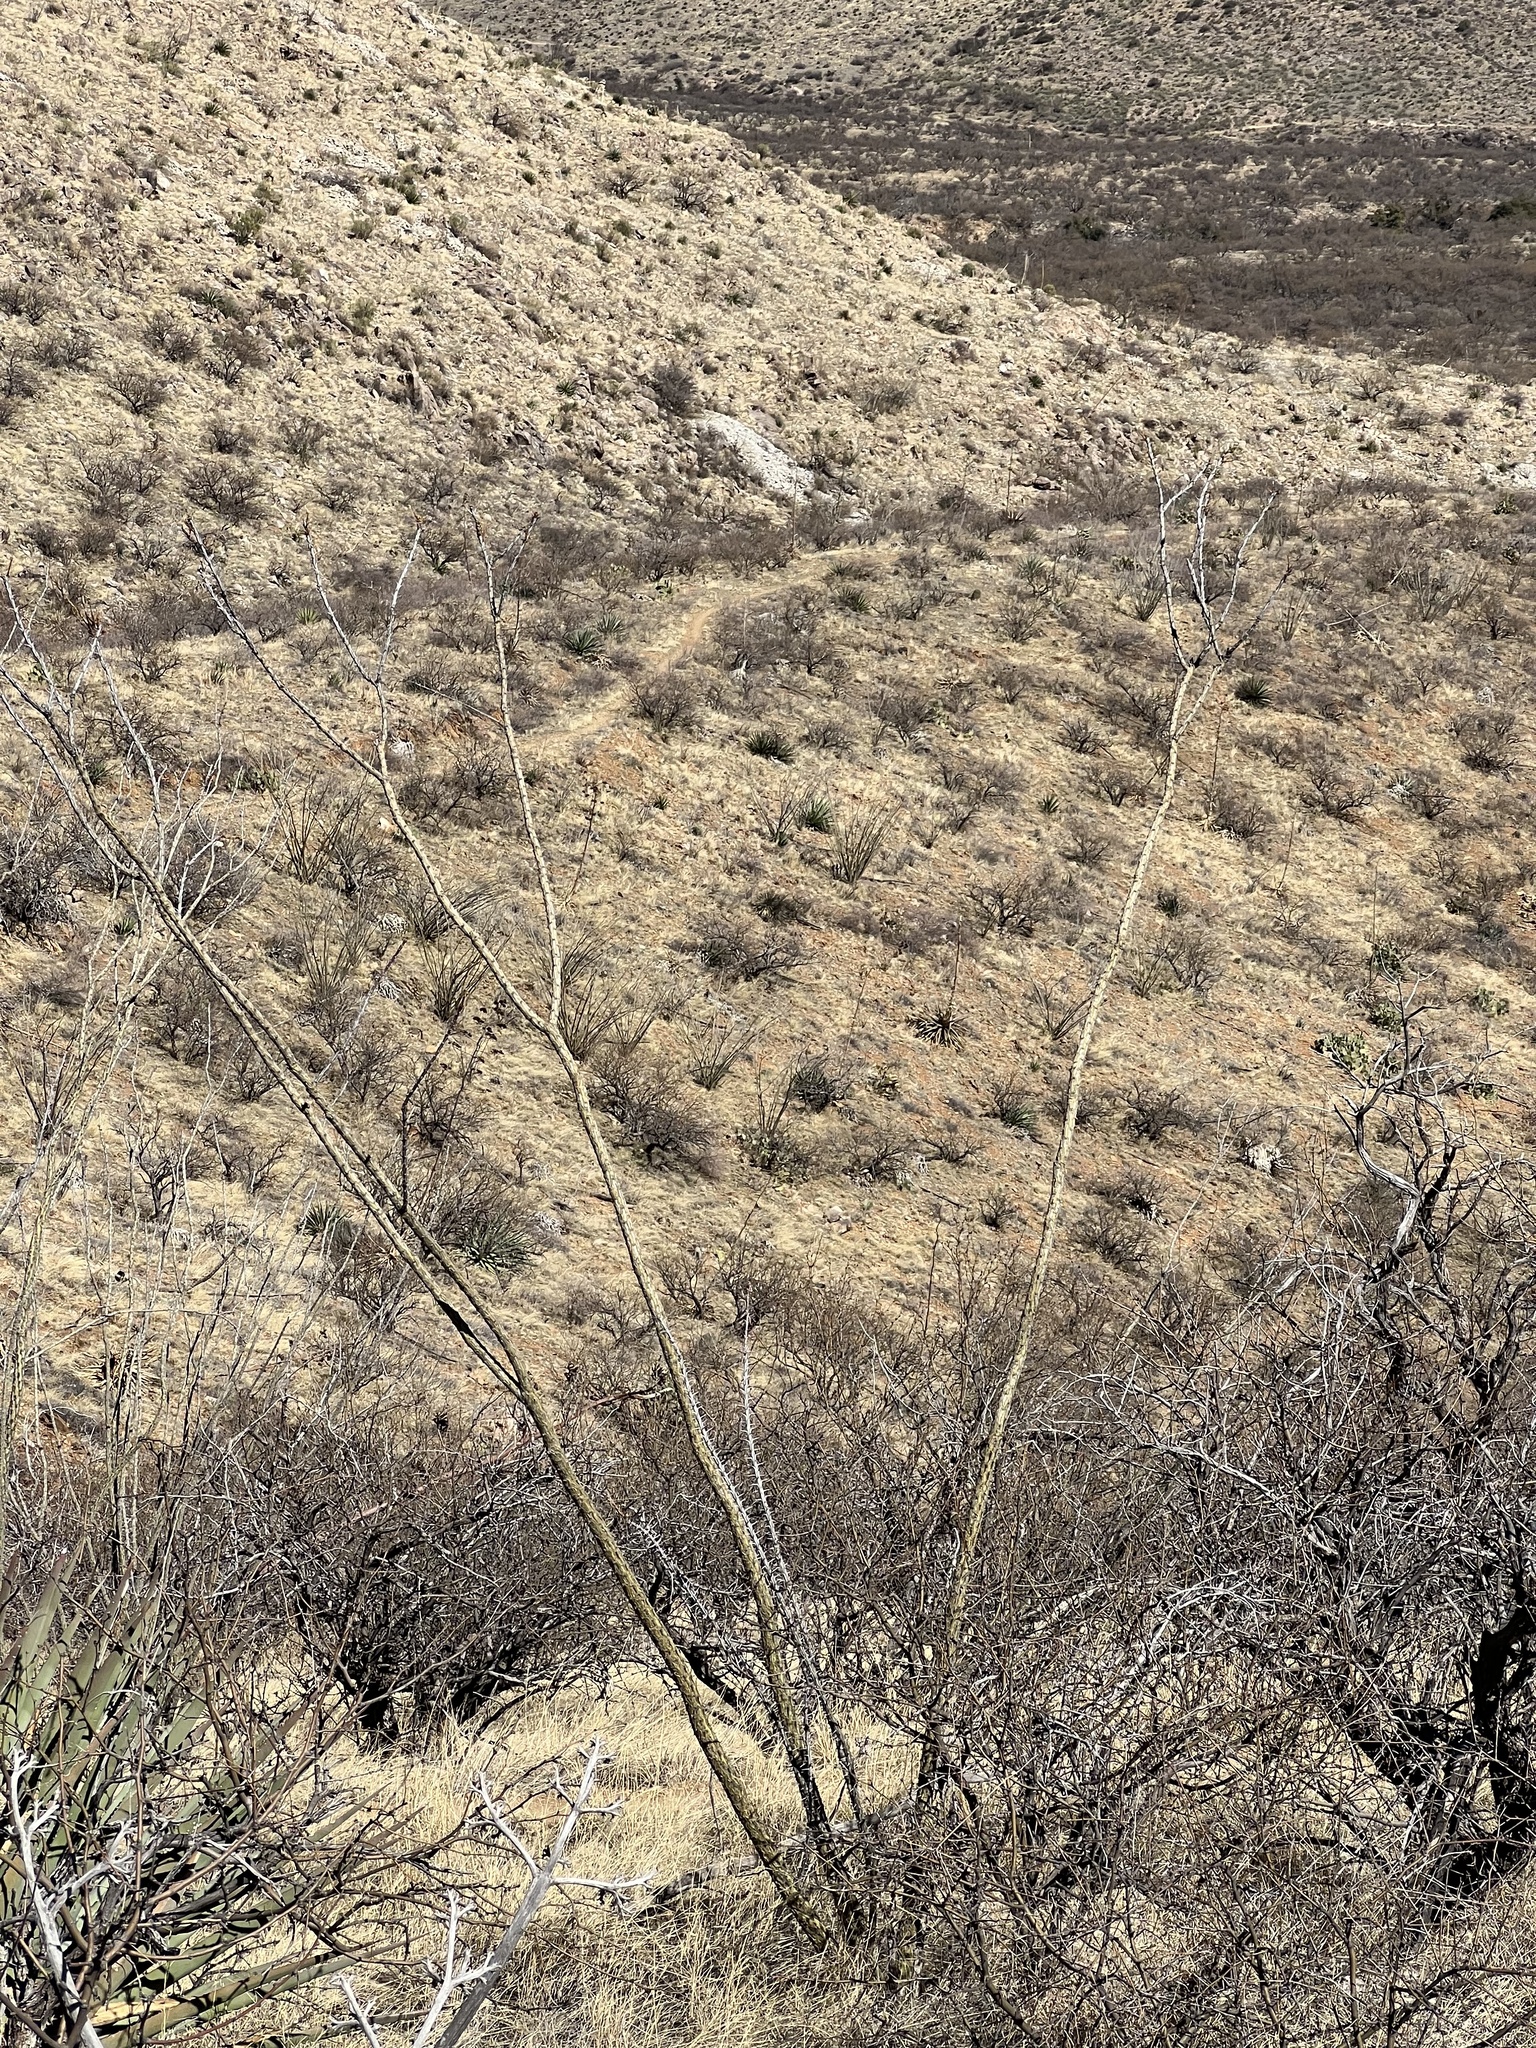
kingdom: Plantae
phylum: Tracheophyta
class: Magnoliopsida
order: Ericales
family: Fouquieriaceae
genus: Fouquieria
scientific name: Fouquieria splendens
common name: Vine-cactus
